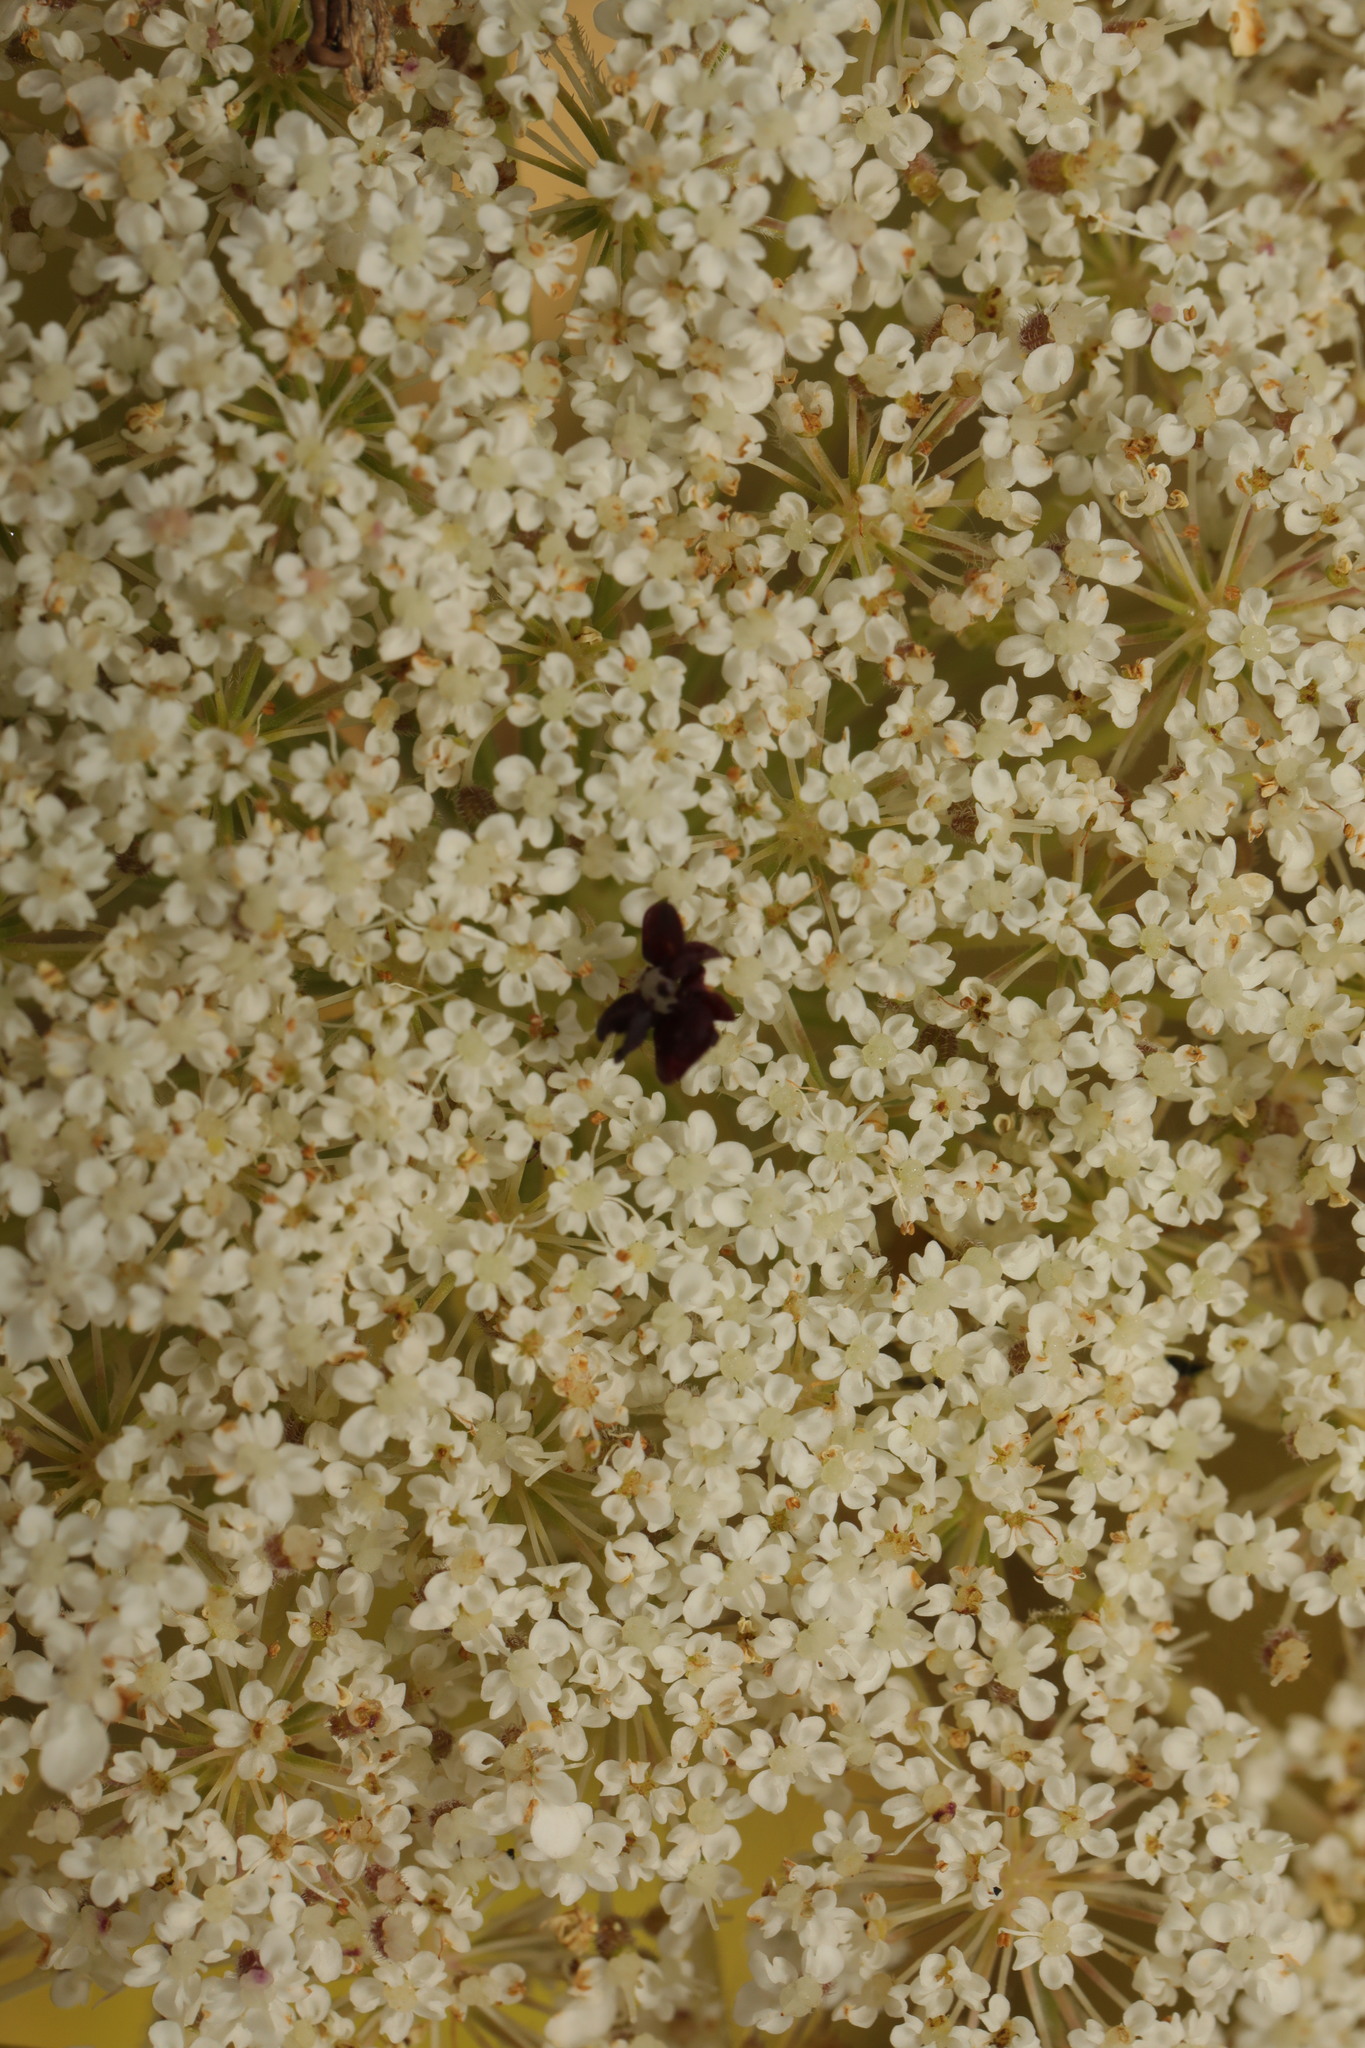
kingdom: Plantae
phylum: Tracheophyta
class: Magnoliopsida
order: Apiales
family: Apiaceae
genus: Daucus
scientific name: Daucus carota
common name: Wild carrot
